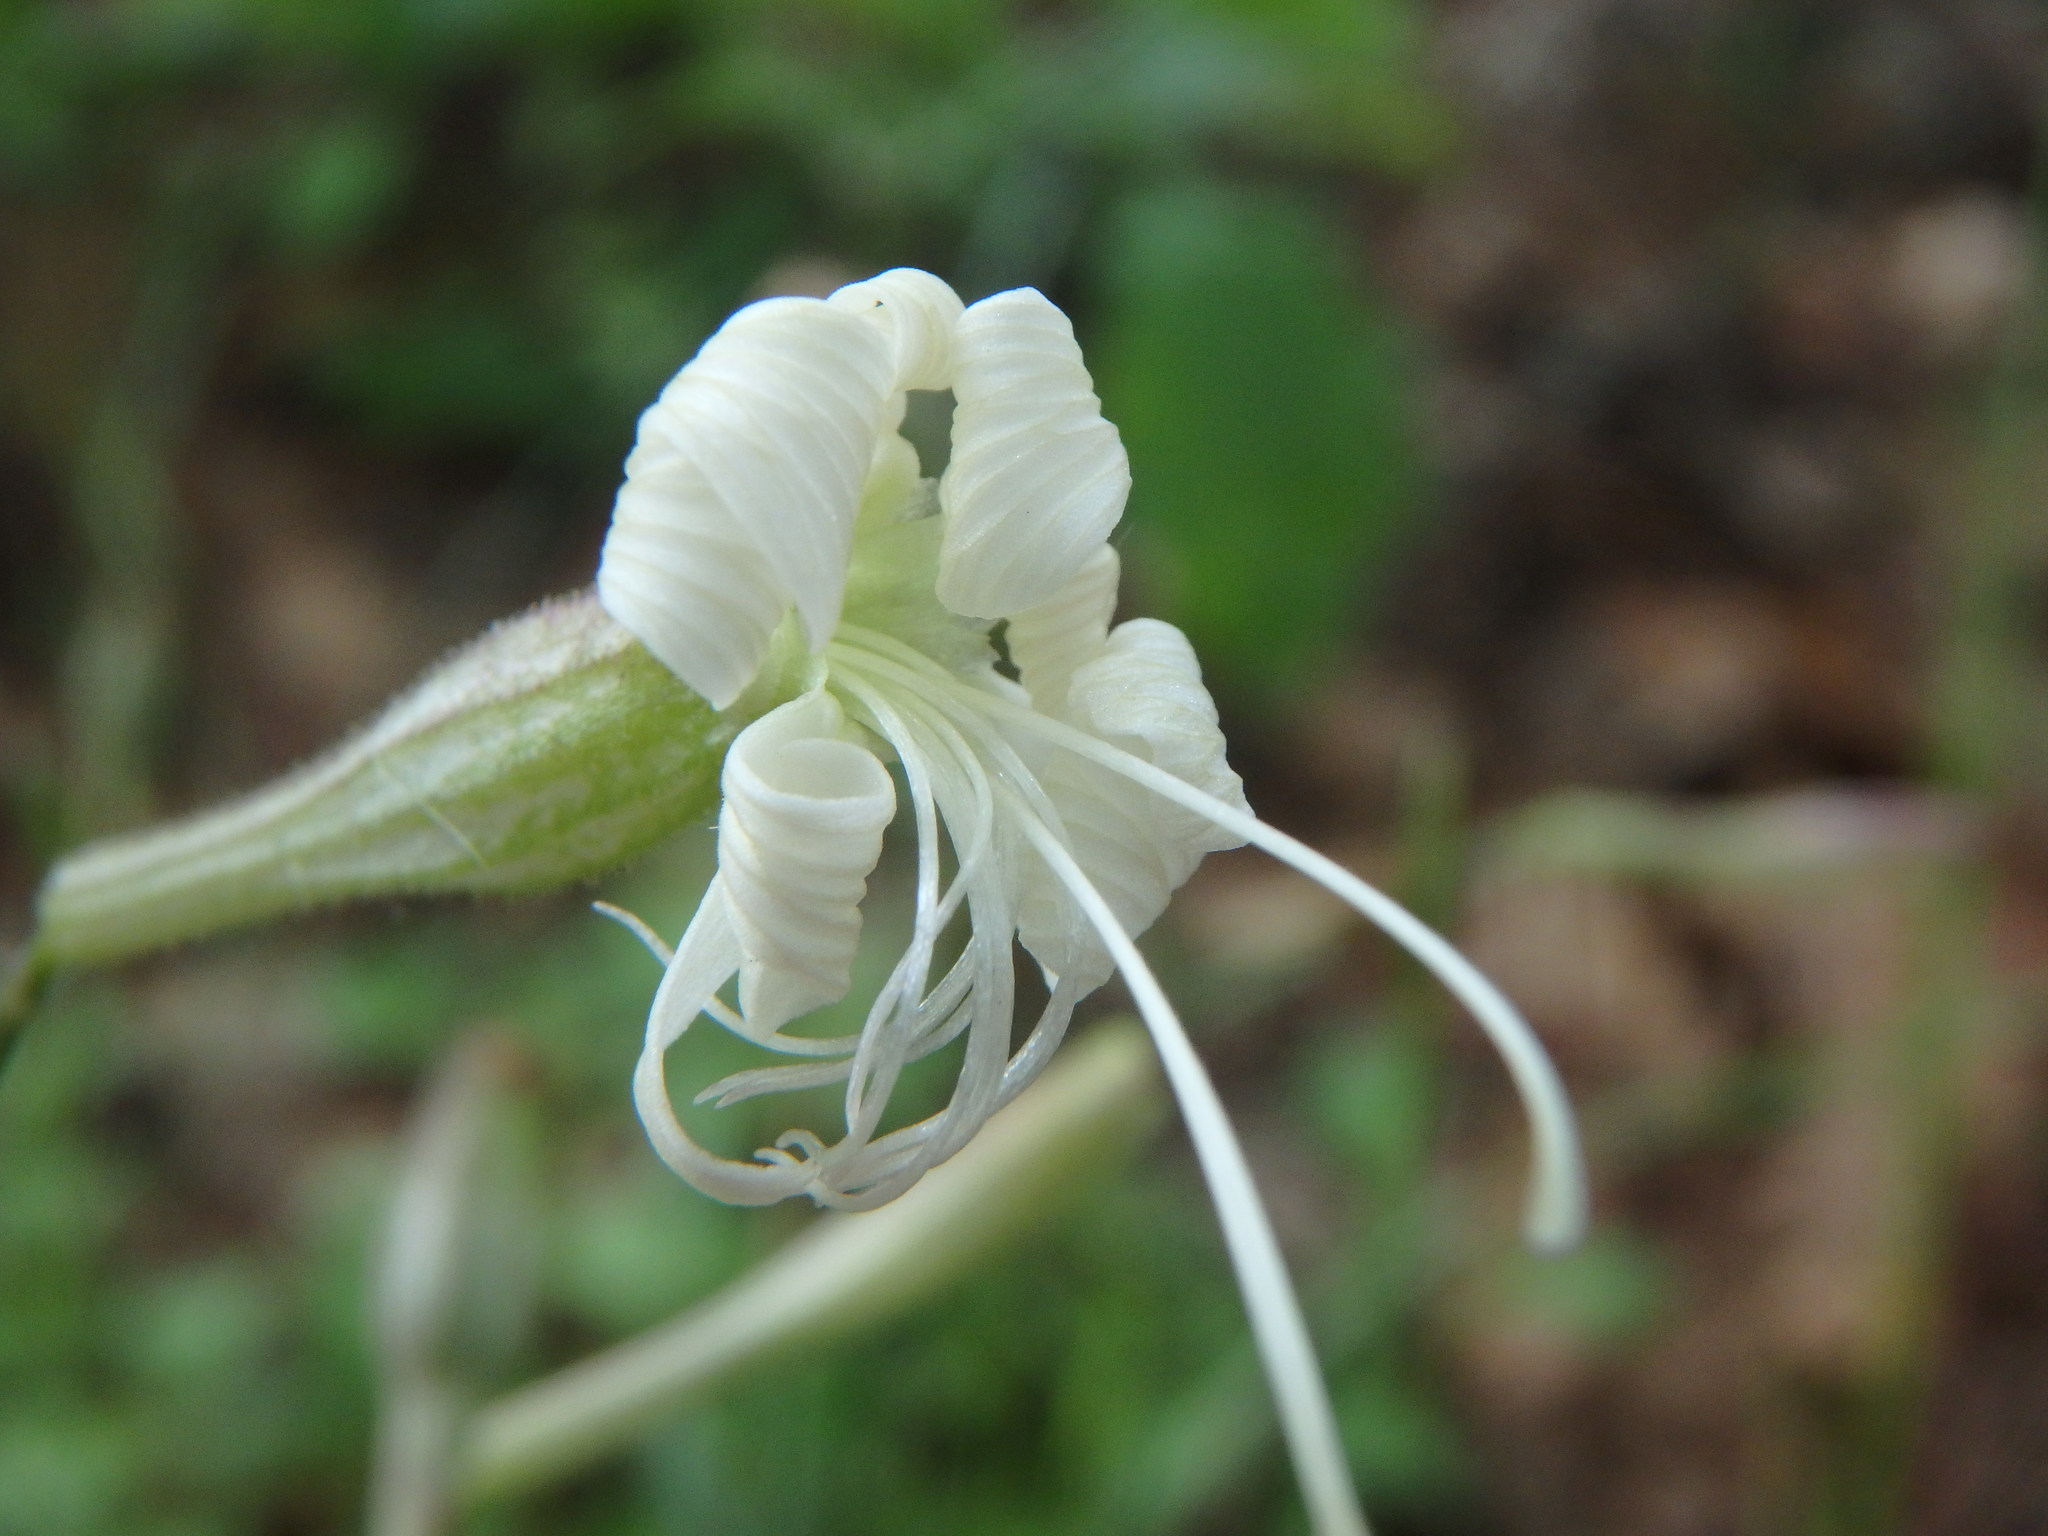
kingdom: Plantae
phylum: Tracheophyta
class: Magnoliopsida
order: Caryophyllales
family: Caryophyllaceae
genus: Silene
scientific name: Silene italica
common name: Italian catchfly
